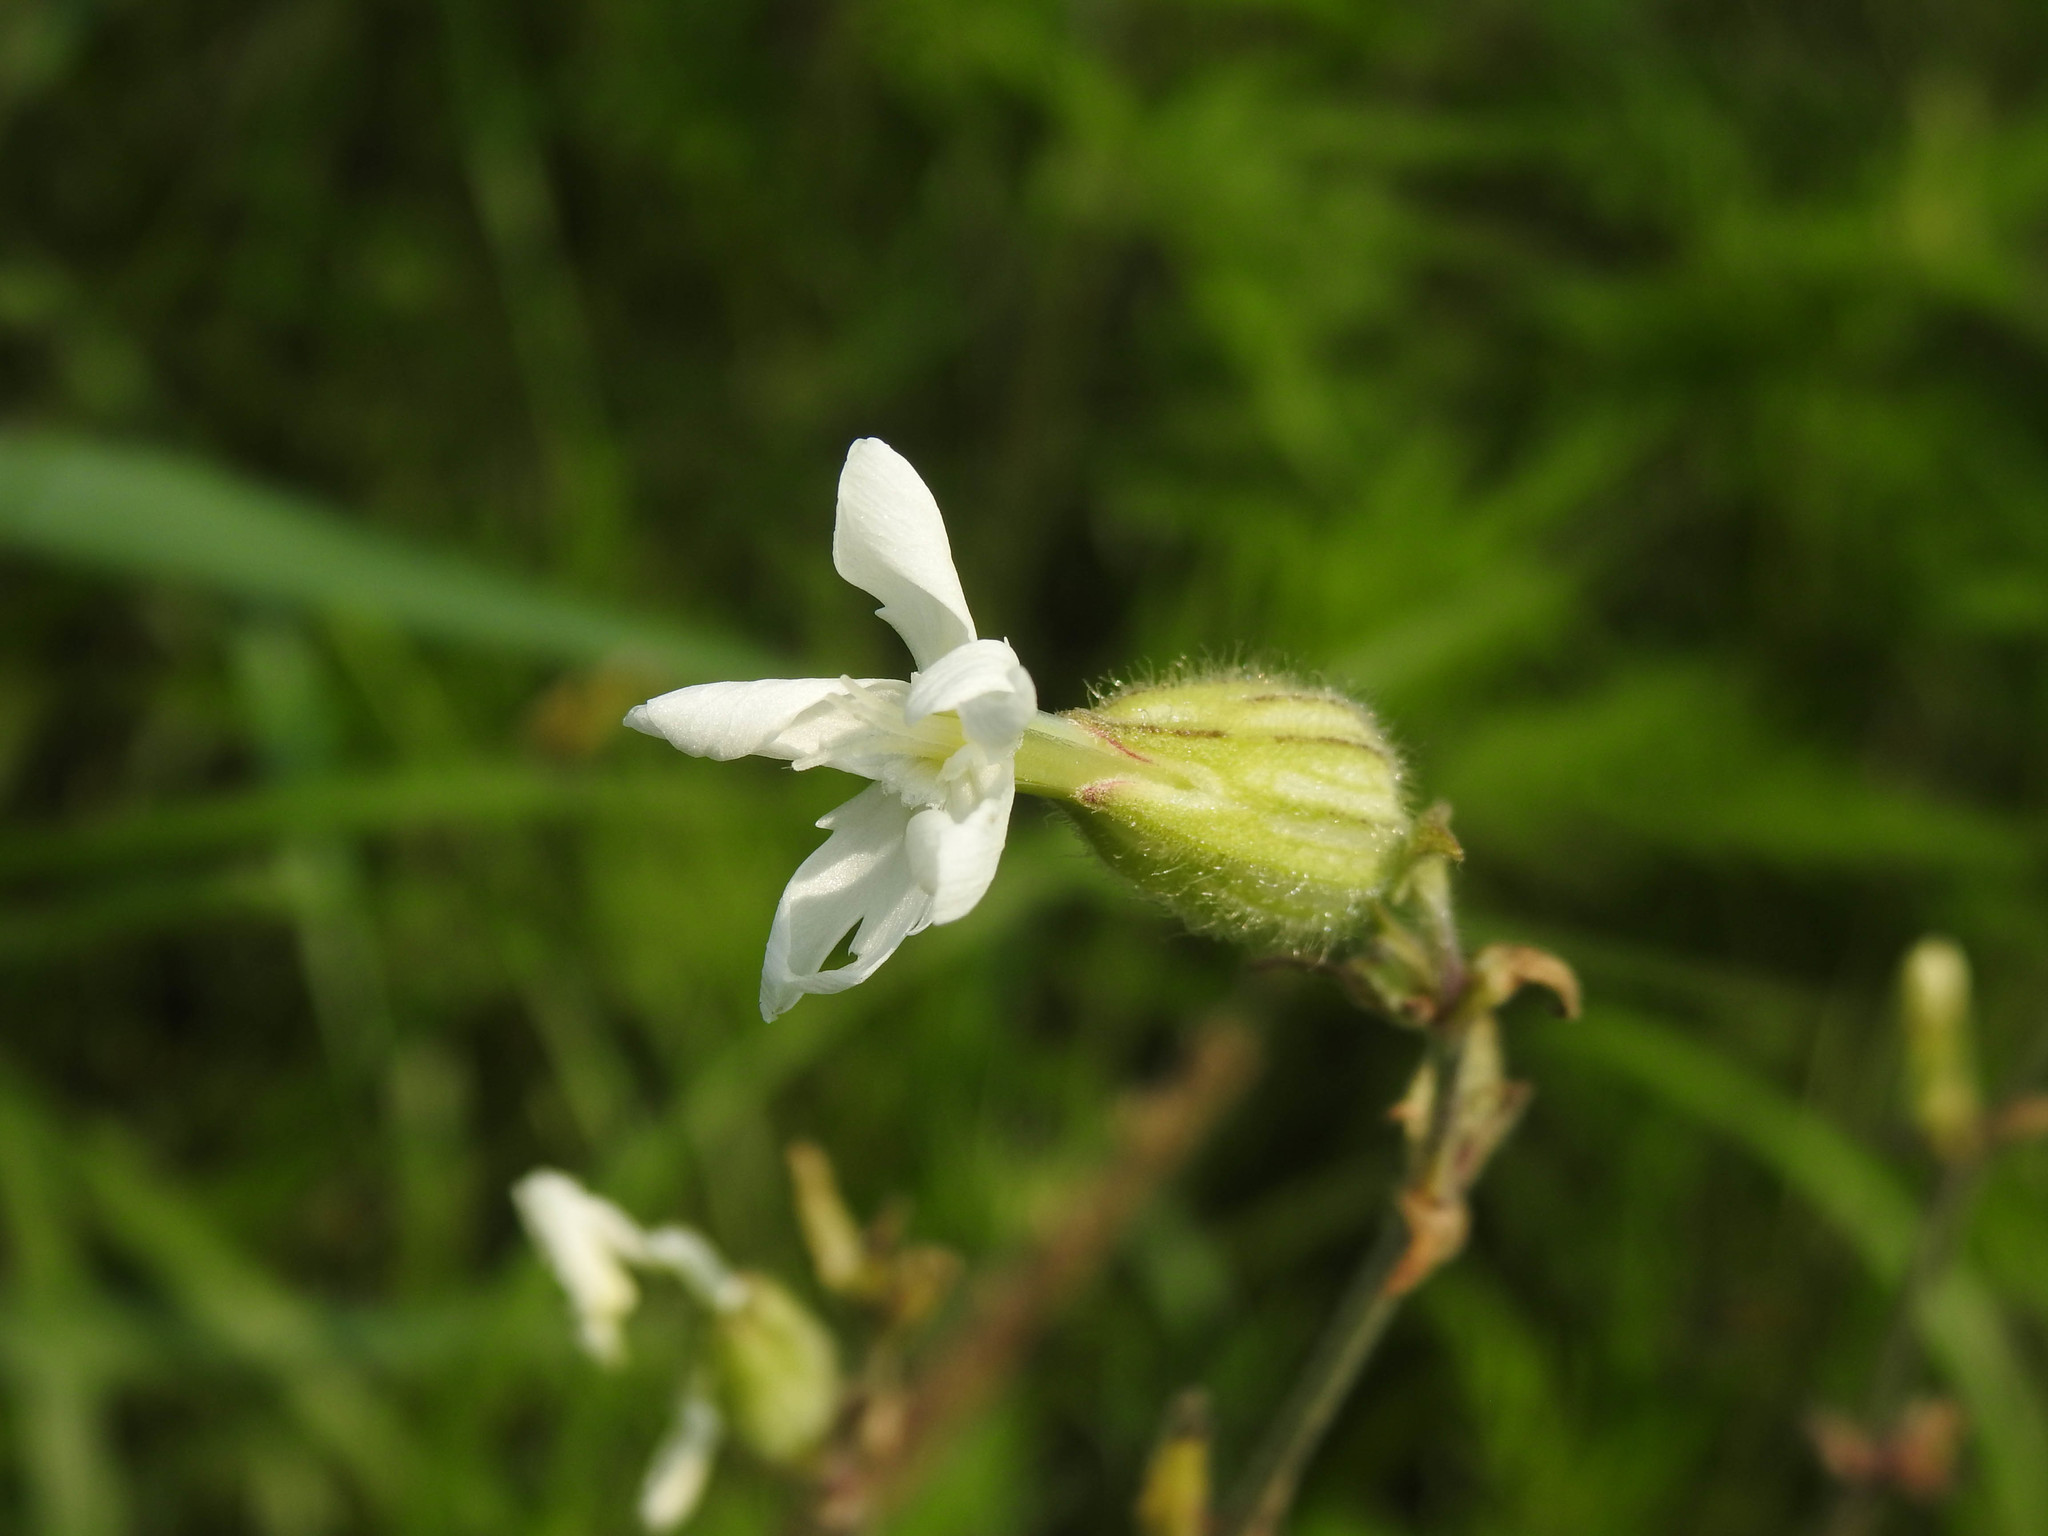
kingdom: Plantae
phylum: Tracheophyta
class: Magnoliopsida
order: Caryophyllales
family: Caryophyllaceae
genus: Silene
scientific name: Silene latifolia
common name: White campion
